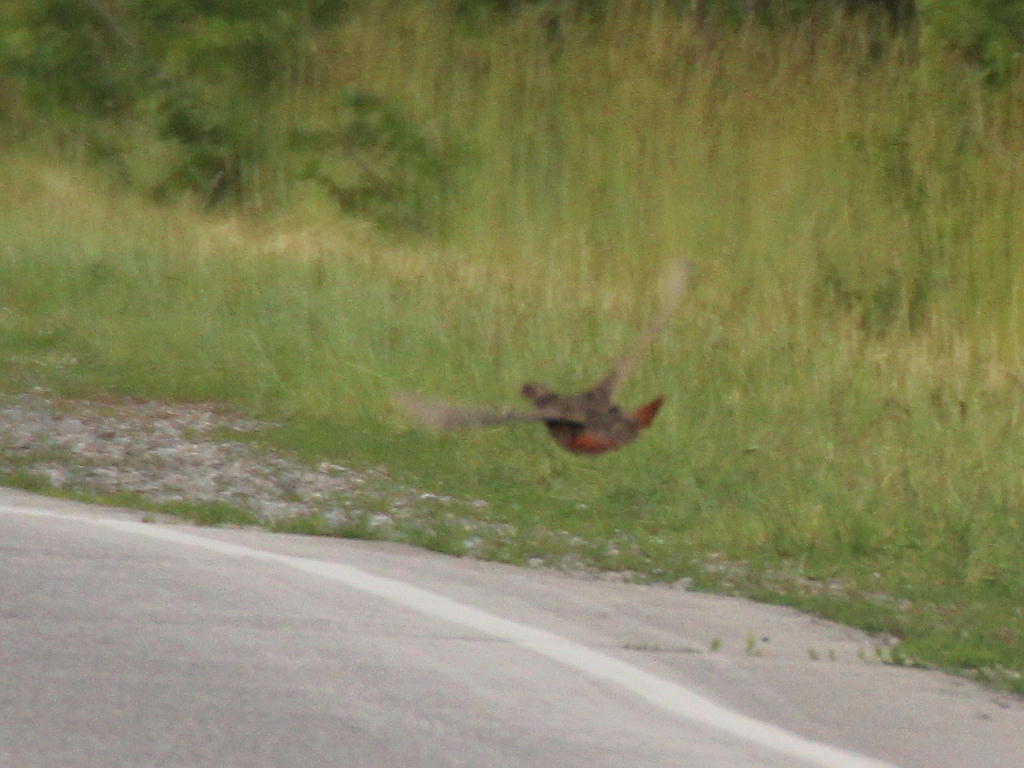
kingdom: Animalia
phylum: Chordata
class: Aves
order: Galliformes
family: Phasianidae
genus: Perdix
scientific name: Perdix perdix
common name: Grey partridge
